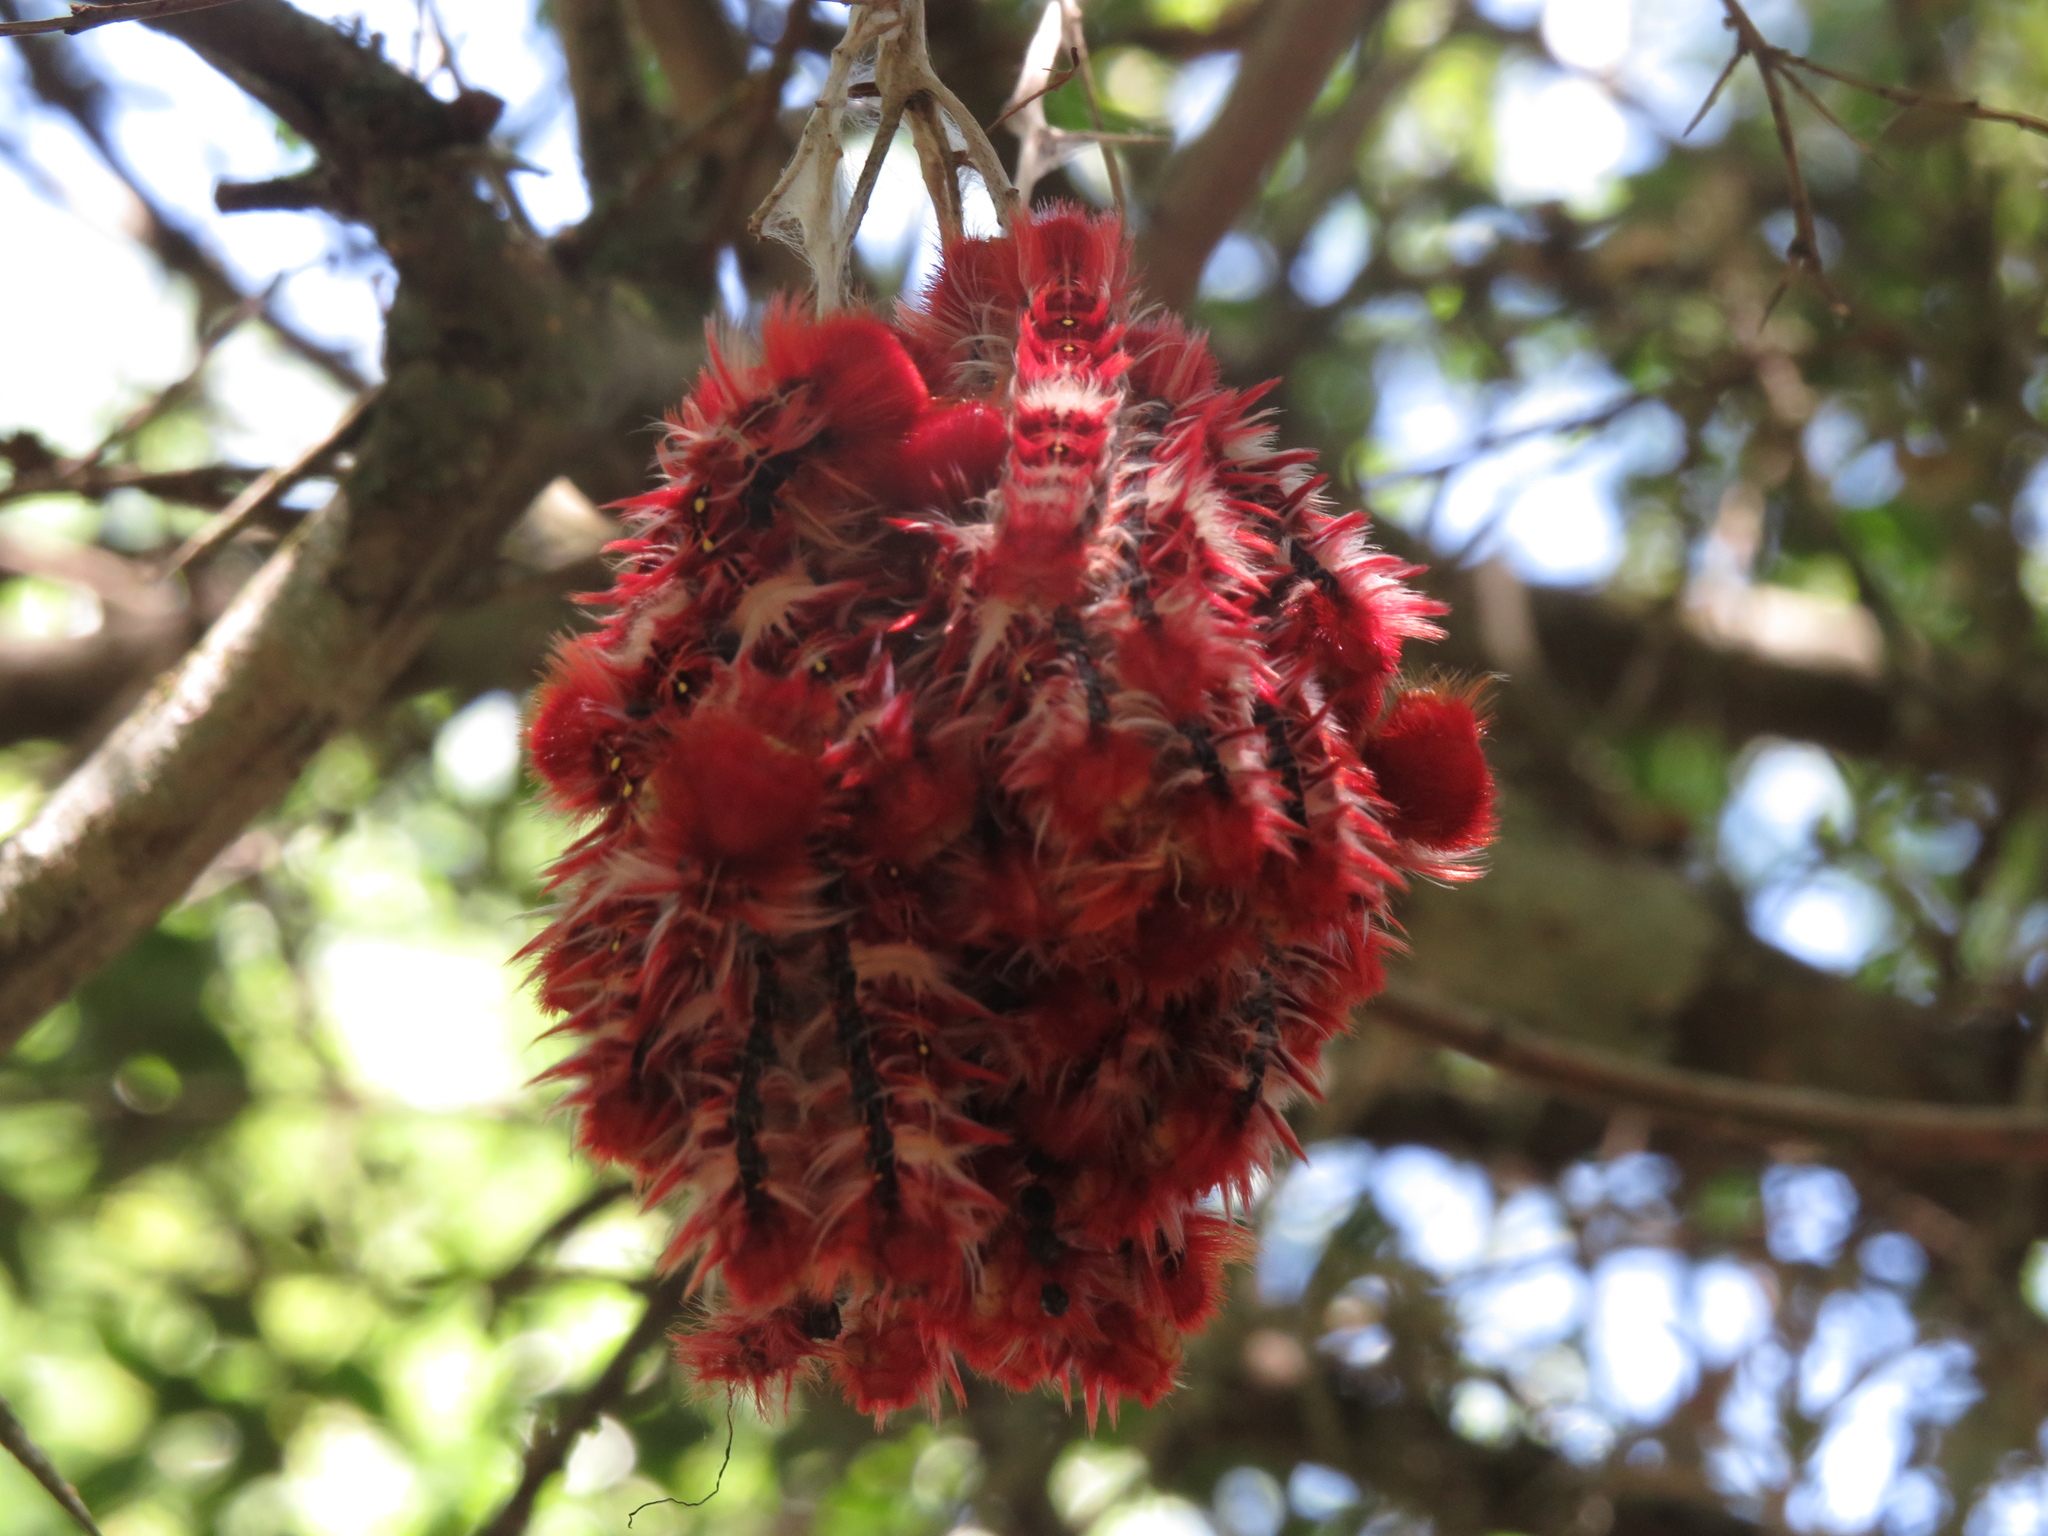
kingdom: Animalia
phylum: Arthropoda
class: Insecta
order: Lepidoptera
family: Nymphalidae
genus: Morpho
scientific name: Morpho epistrophus
